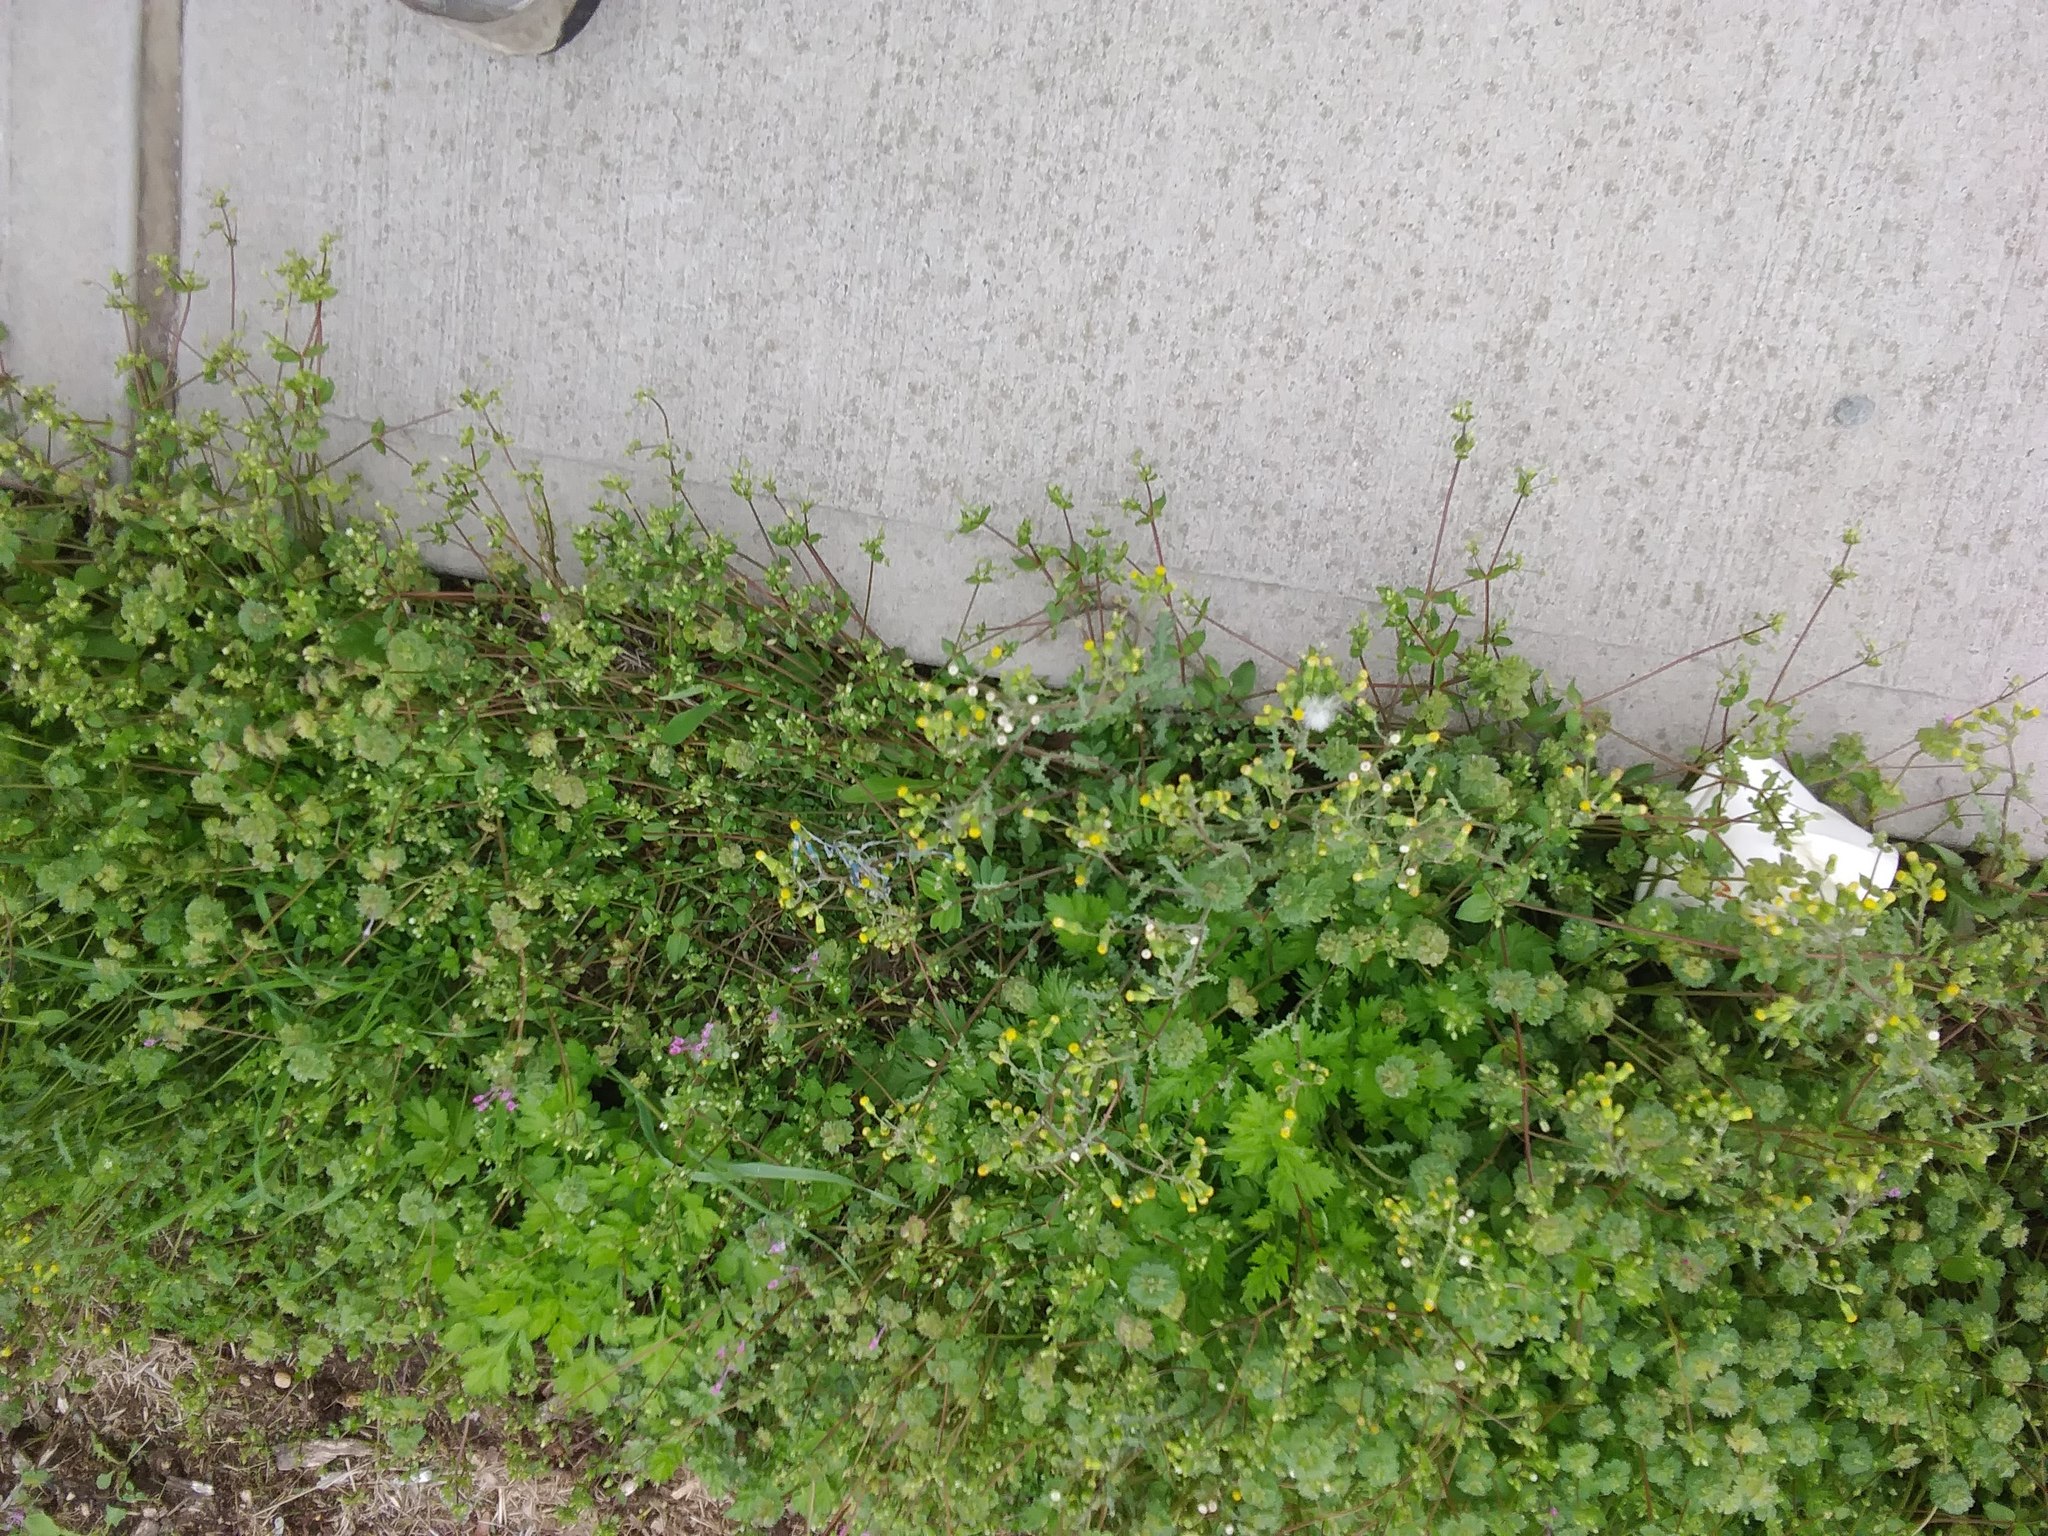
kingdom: Plantae
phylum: Tracheophyta
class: Magnoliopsida
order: Asterales
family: Asteraceae
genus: Senecio
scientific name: Senecio vulgaris
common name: Old-man-in-the-spring
